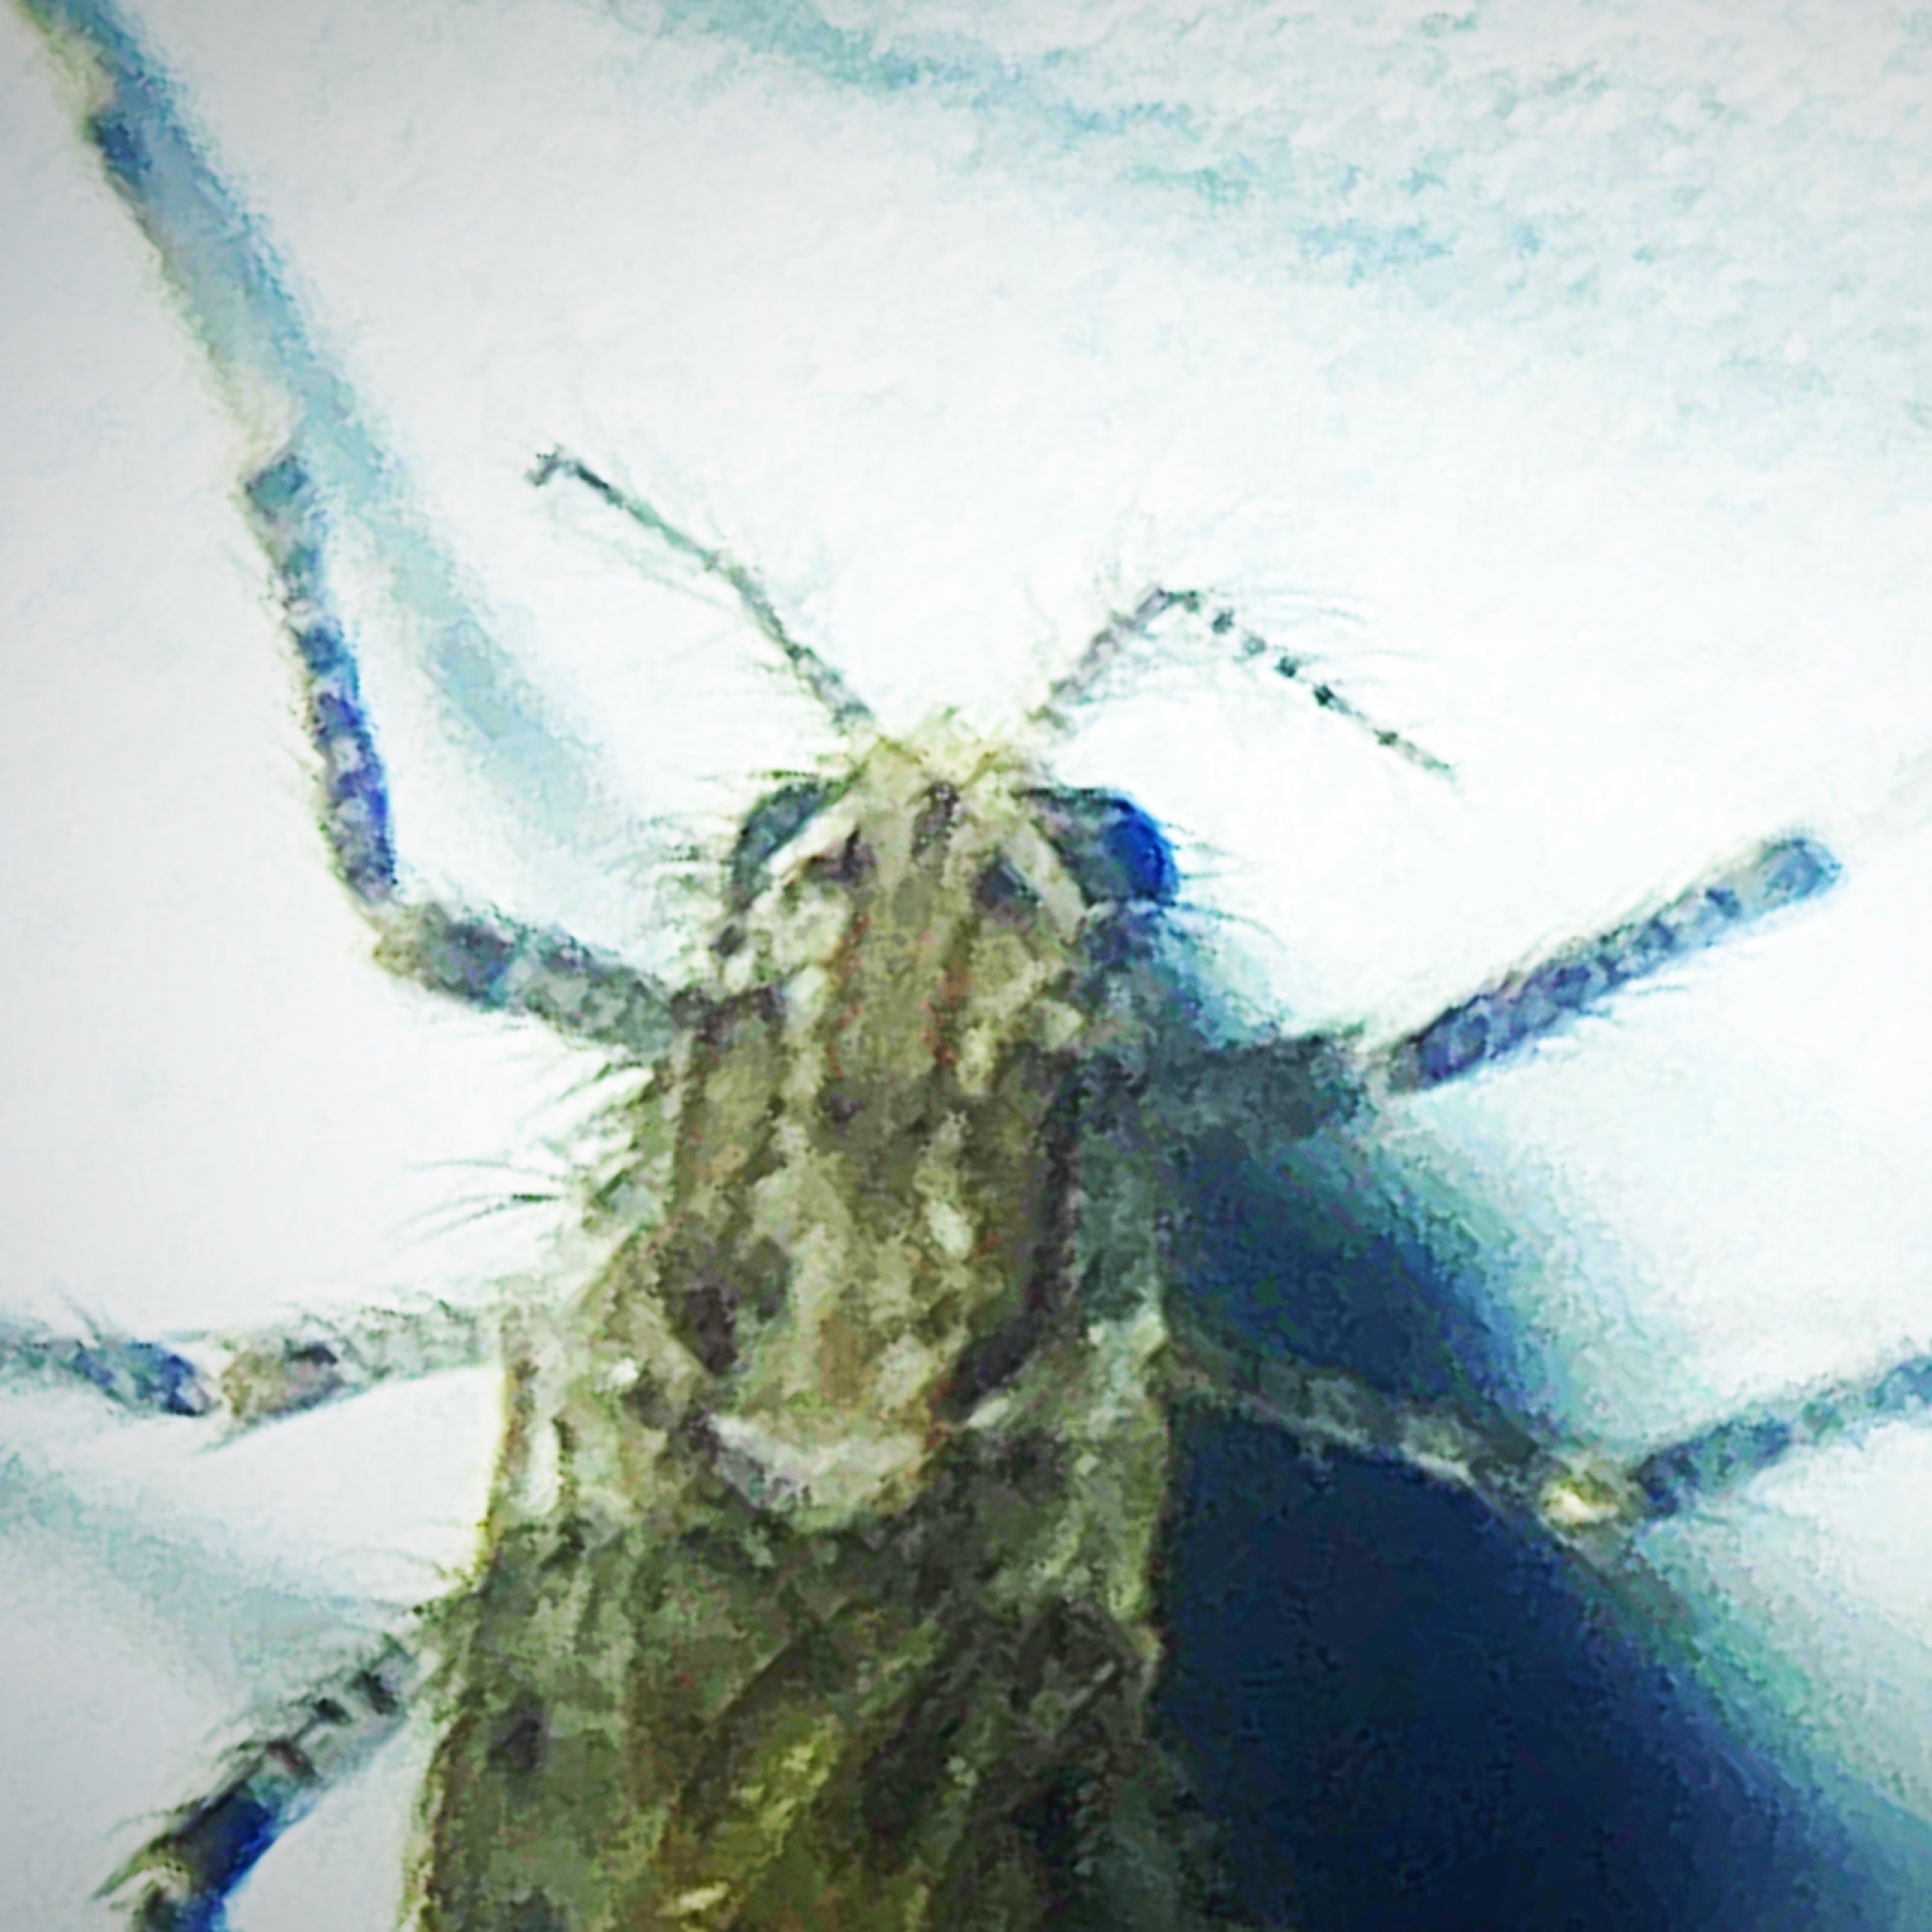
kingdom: Animalia
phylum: Arthropoda
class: Insecta
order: Diptera
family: Chaoboridae
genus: Chaoborus
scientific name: Chaoborus punctipennis
